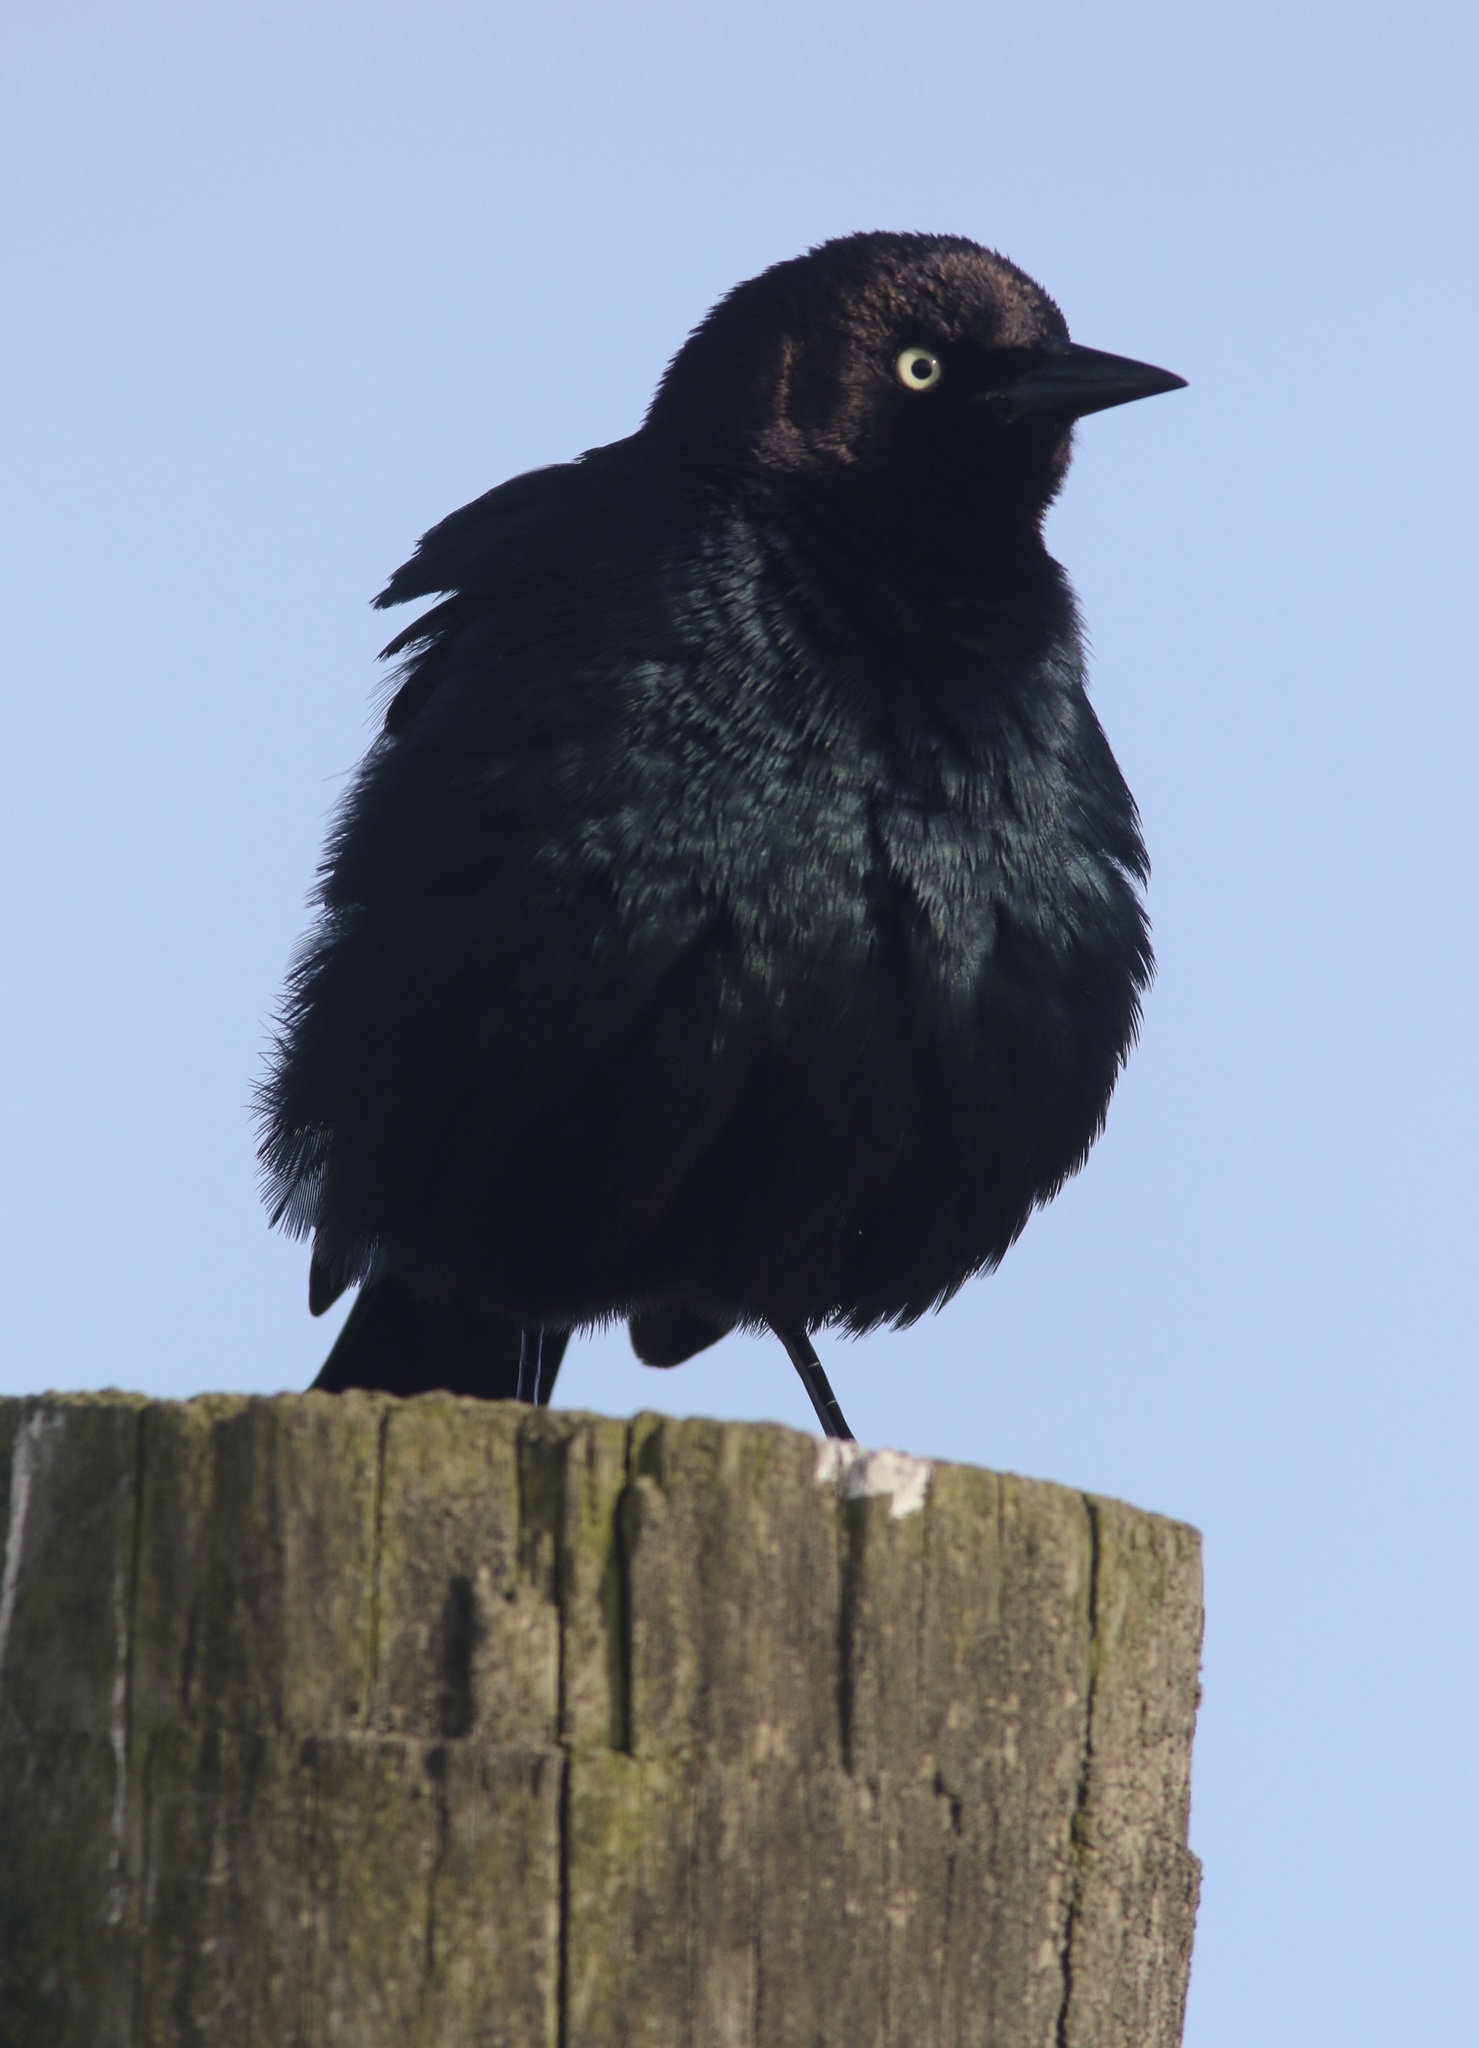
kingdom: Animalia
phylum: Chordata
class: Aves
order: Passeriformes
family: Icteridae
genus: Euphagus
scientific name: Euphagus cyanocephalus
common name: Brewer's blackbird
